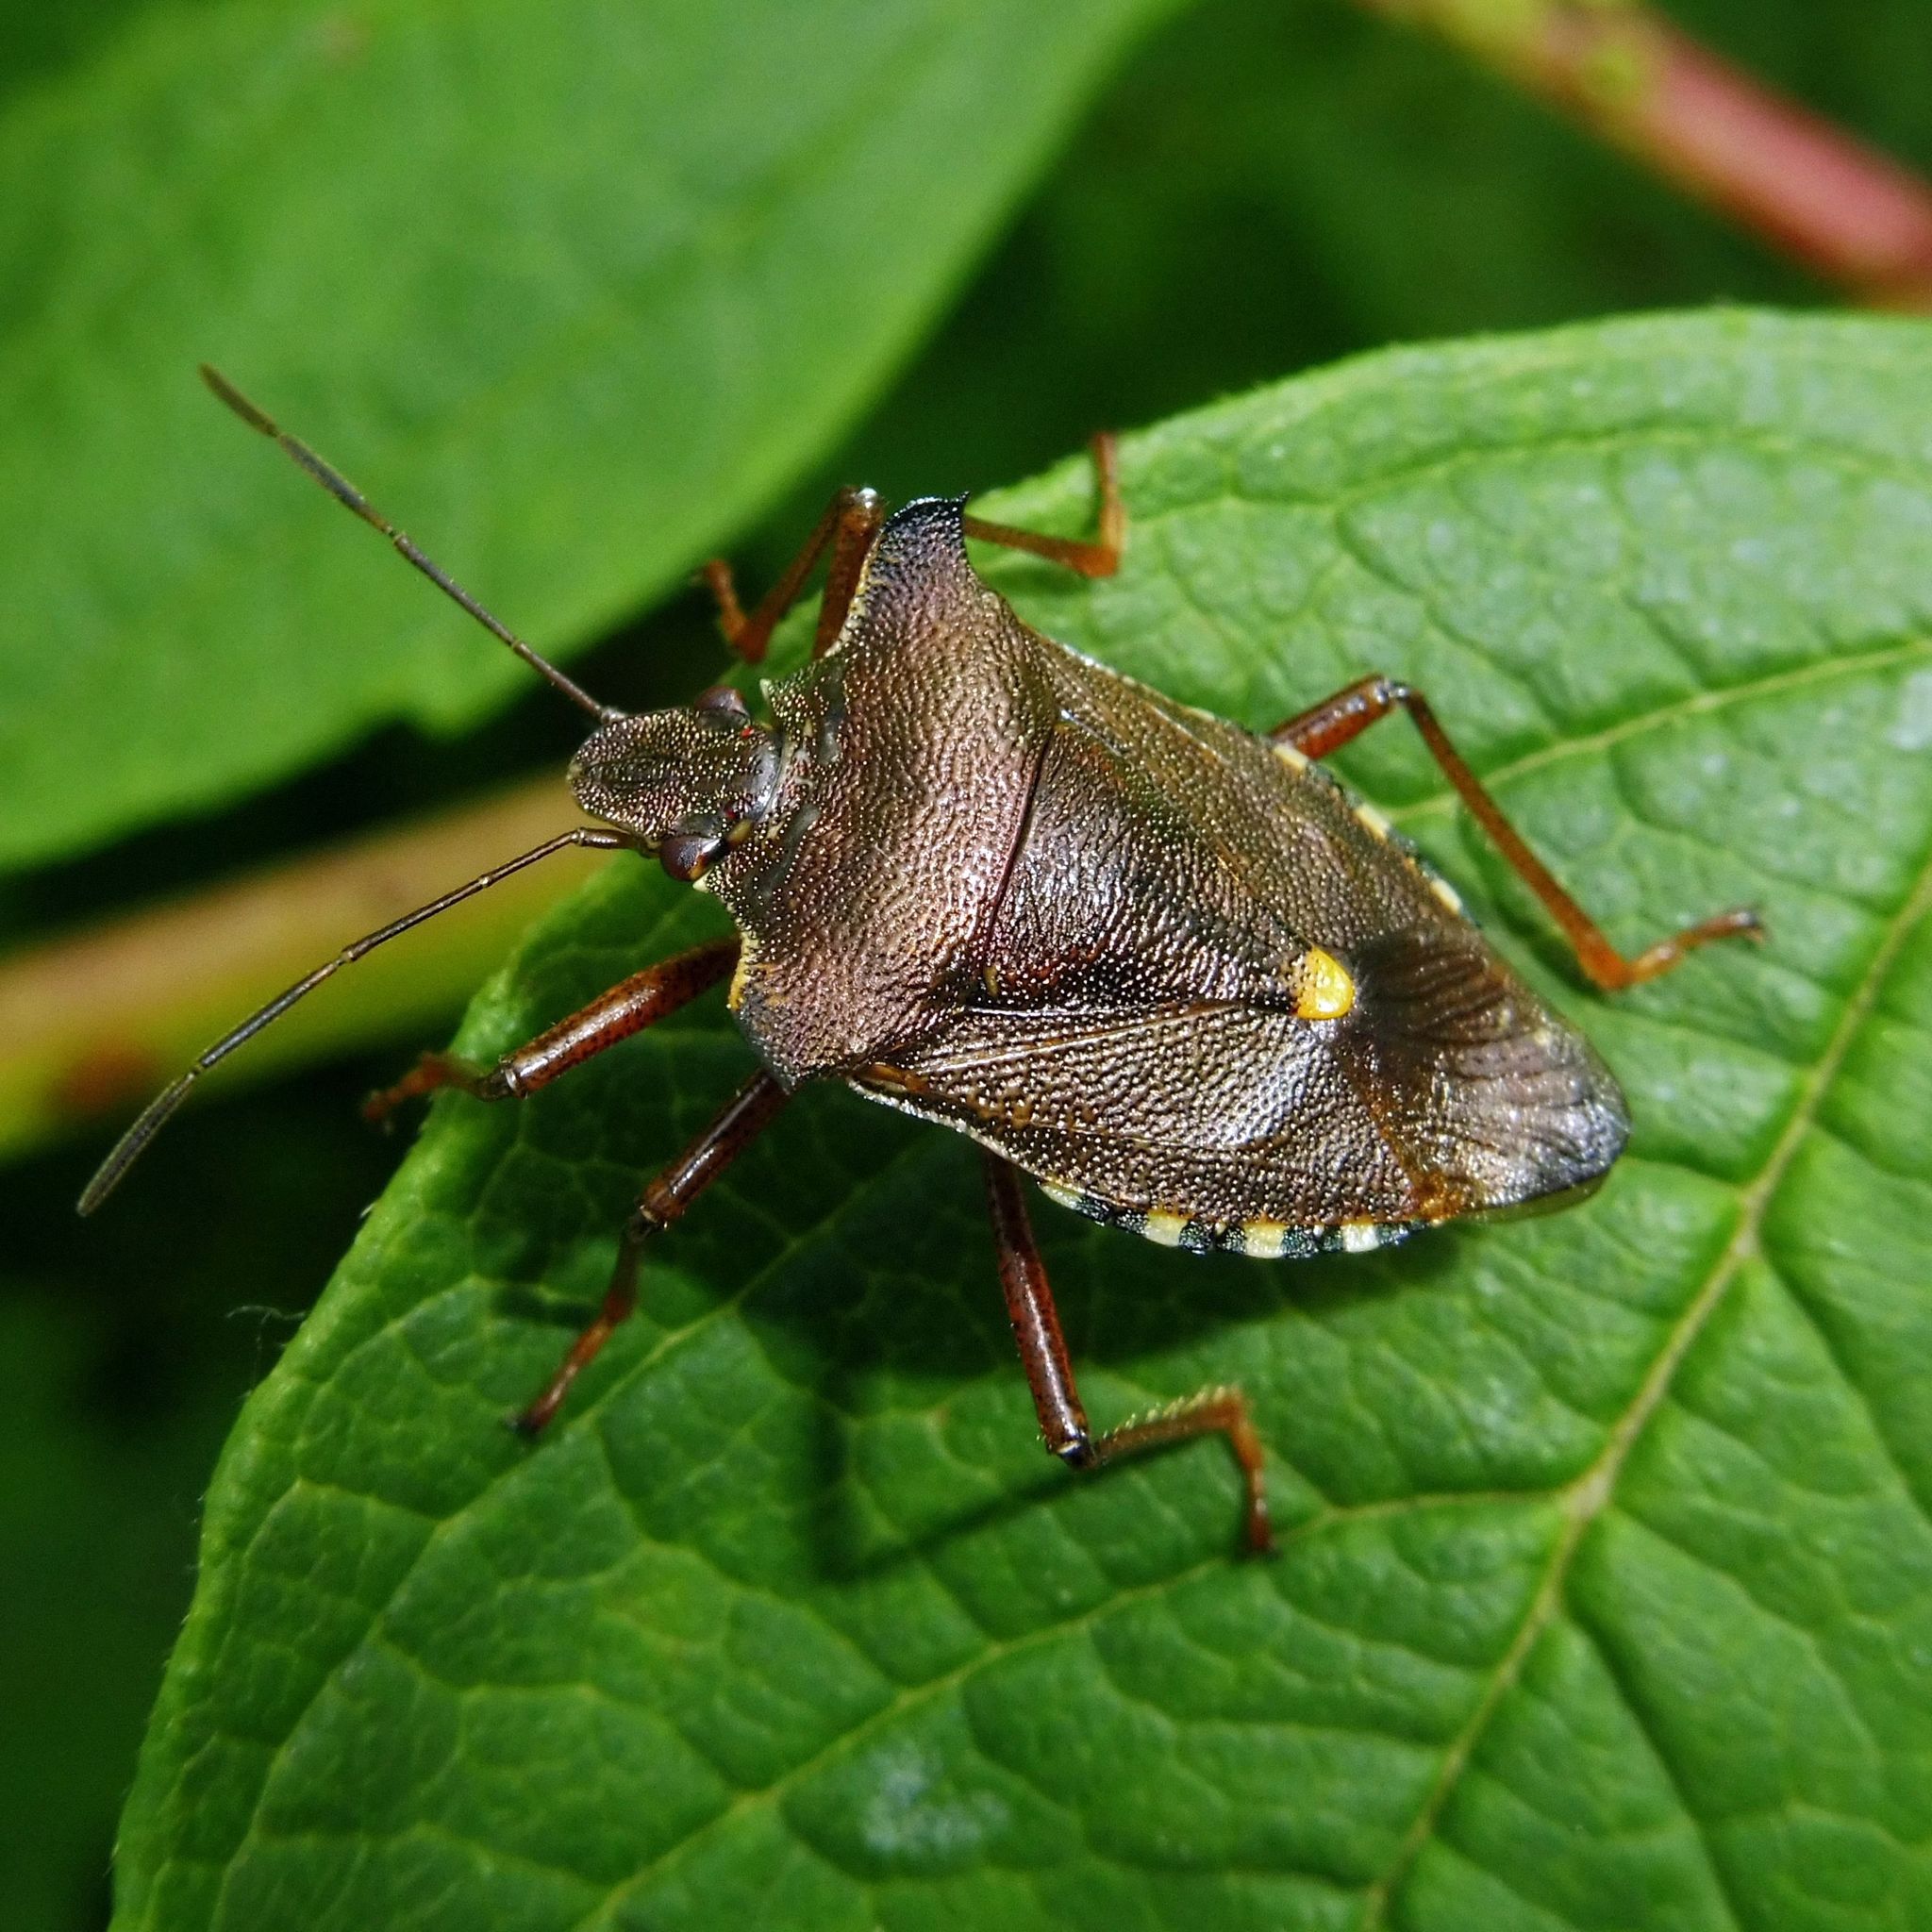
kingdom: Animalia
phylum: Arthropoda
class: Insecta
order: Hemiptera
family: Pentatomidae
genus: Pentatoma
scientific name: Pentatoma rufipes
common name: Forest bug
